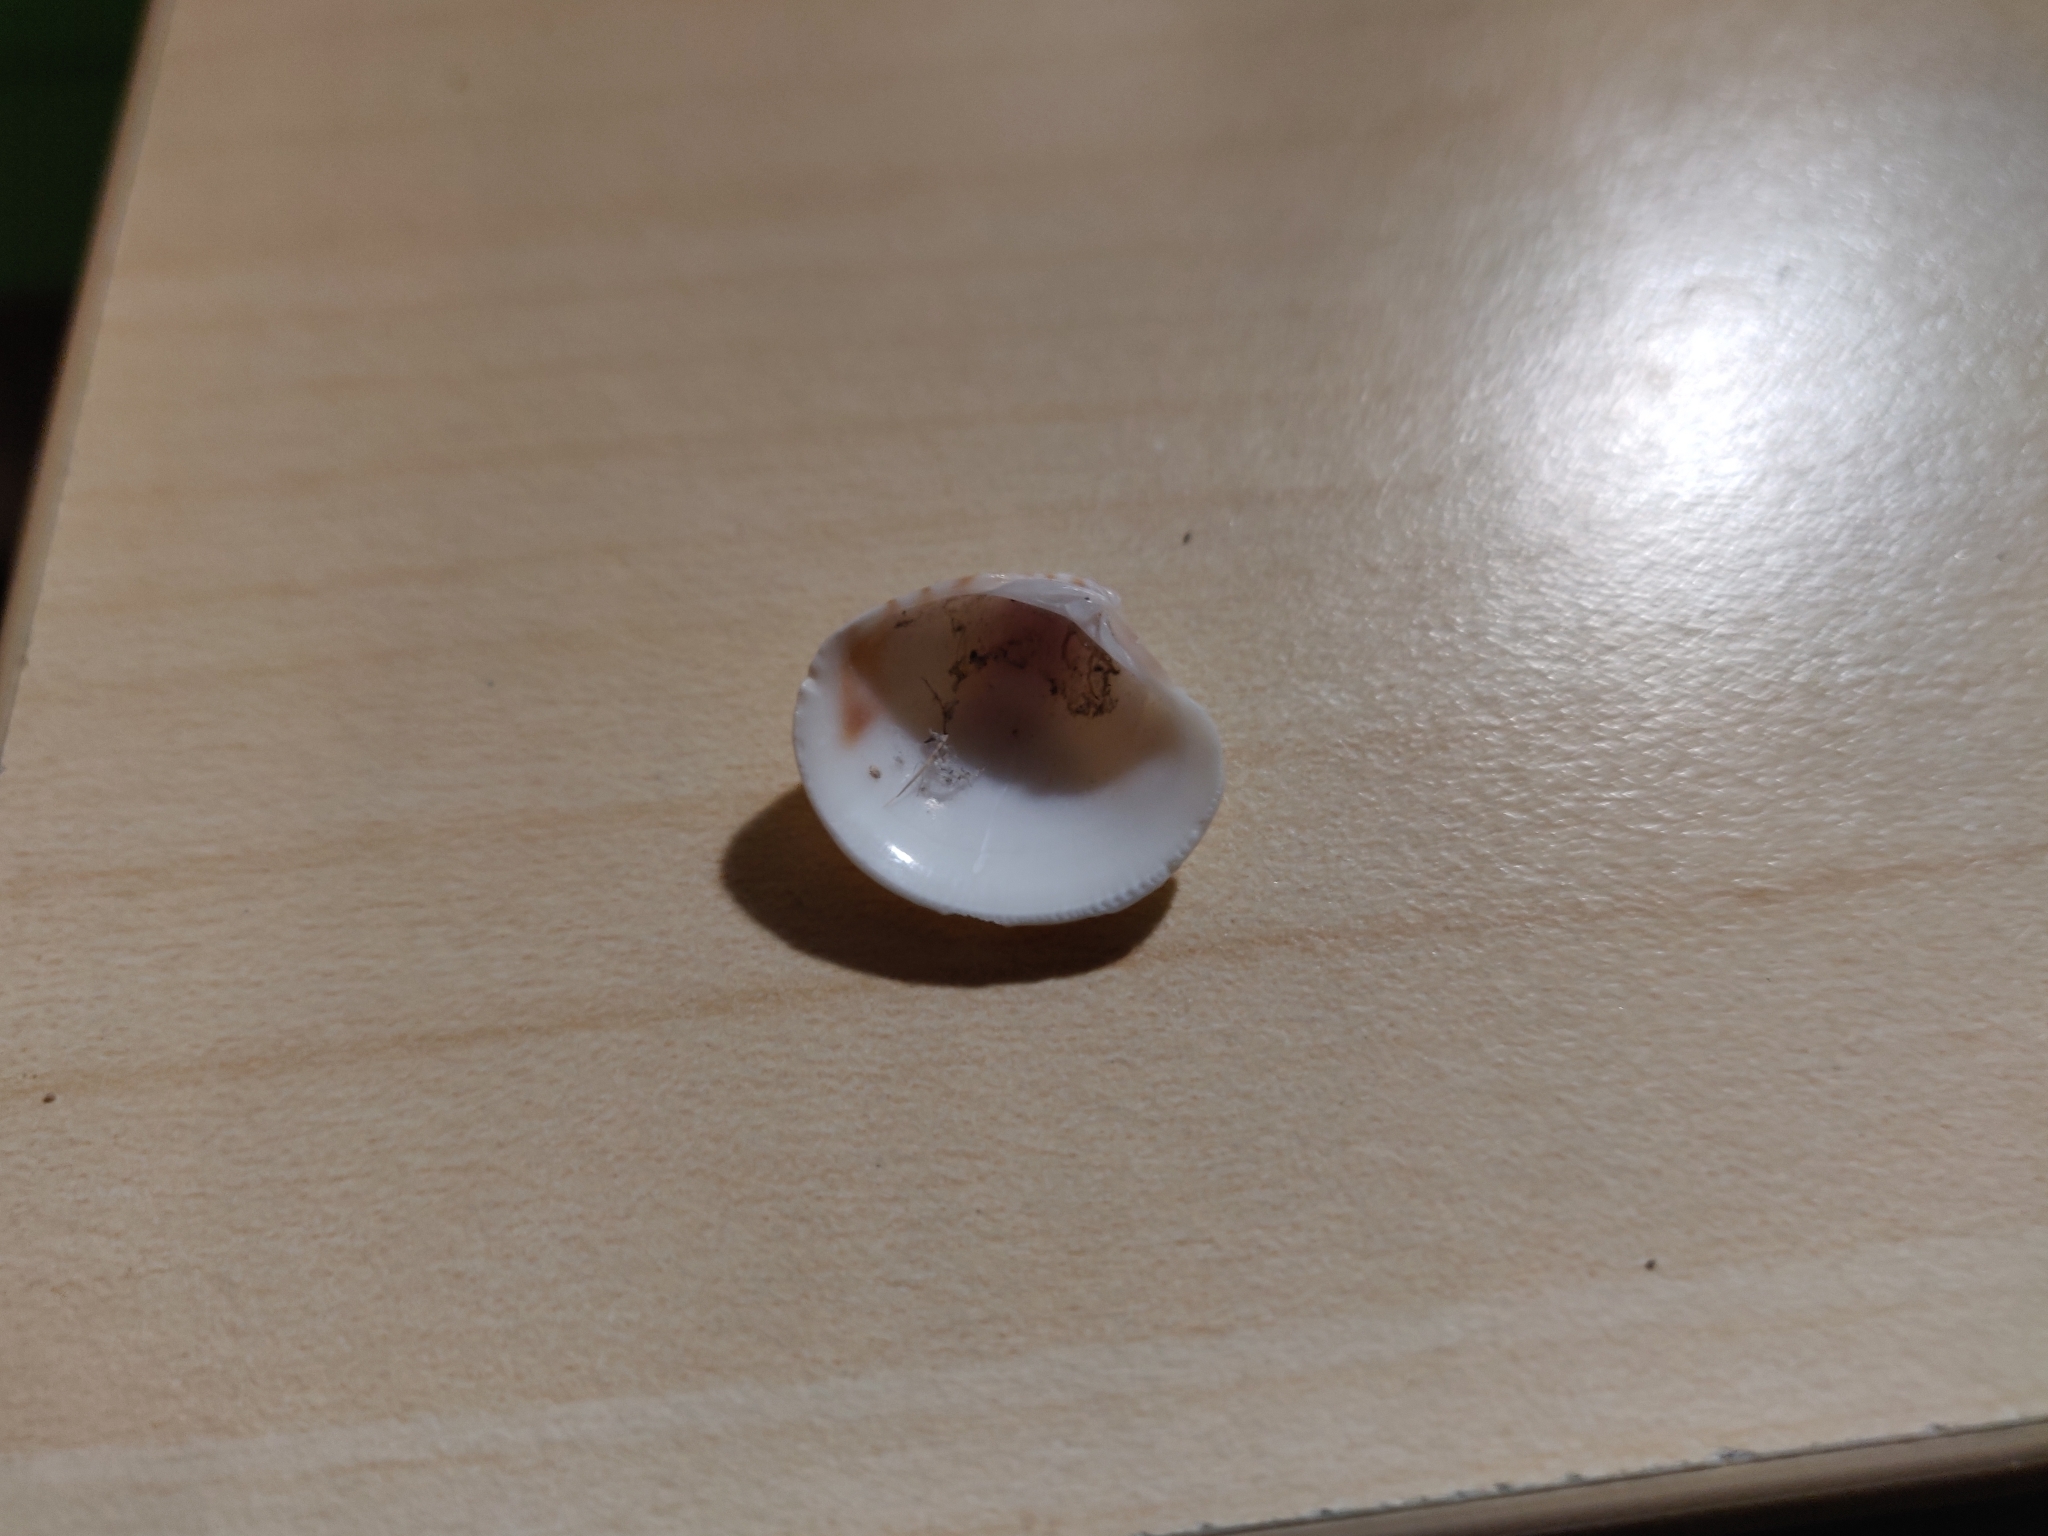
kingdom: Animalia
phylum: Mollusca
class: Bivalvia
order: Venerida
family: Veneridae
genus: Chamelea
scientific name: Chamelea gallina
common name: Chicken venus
